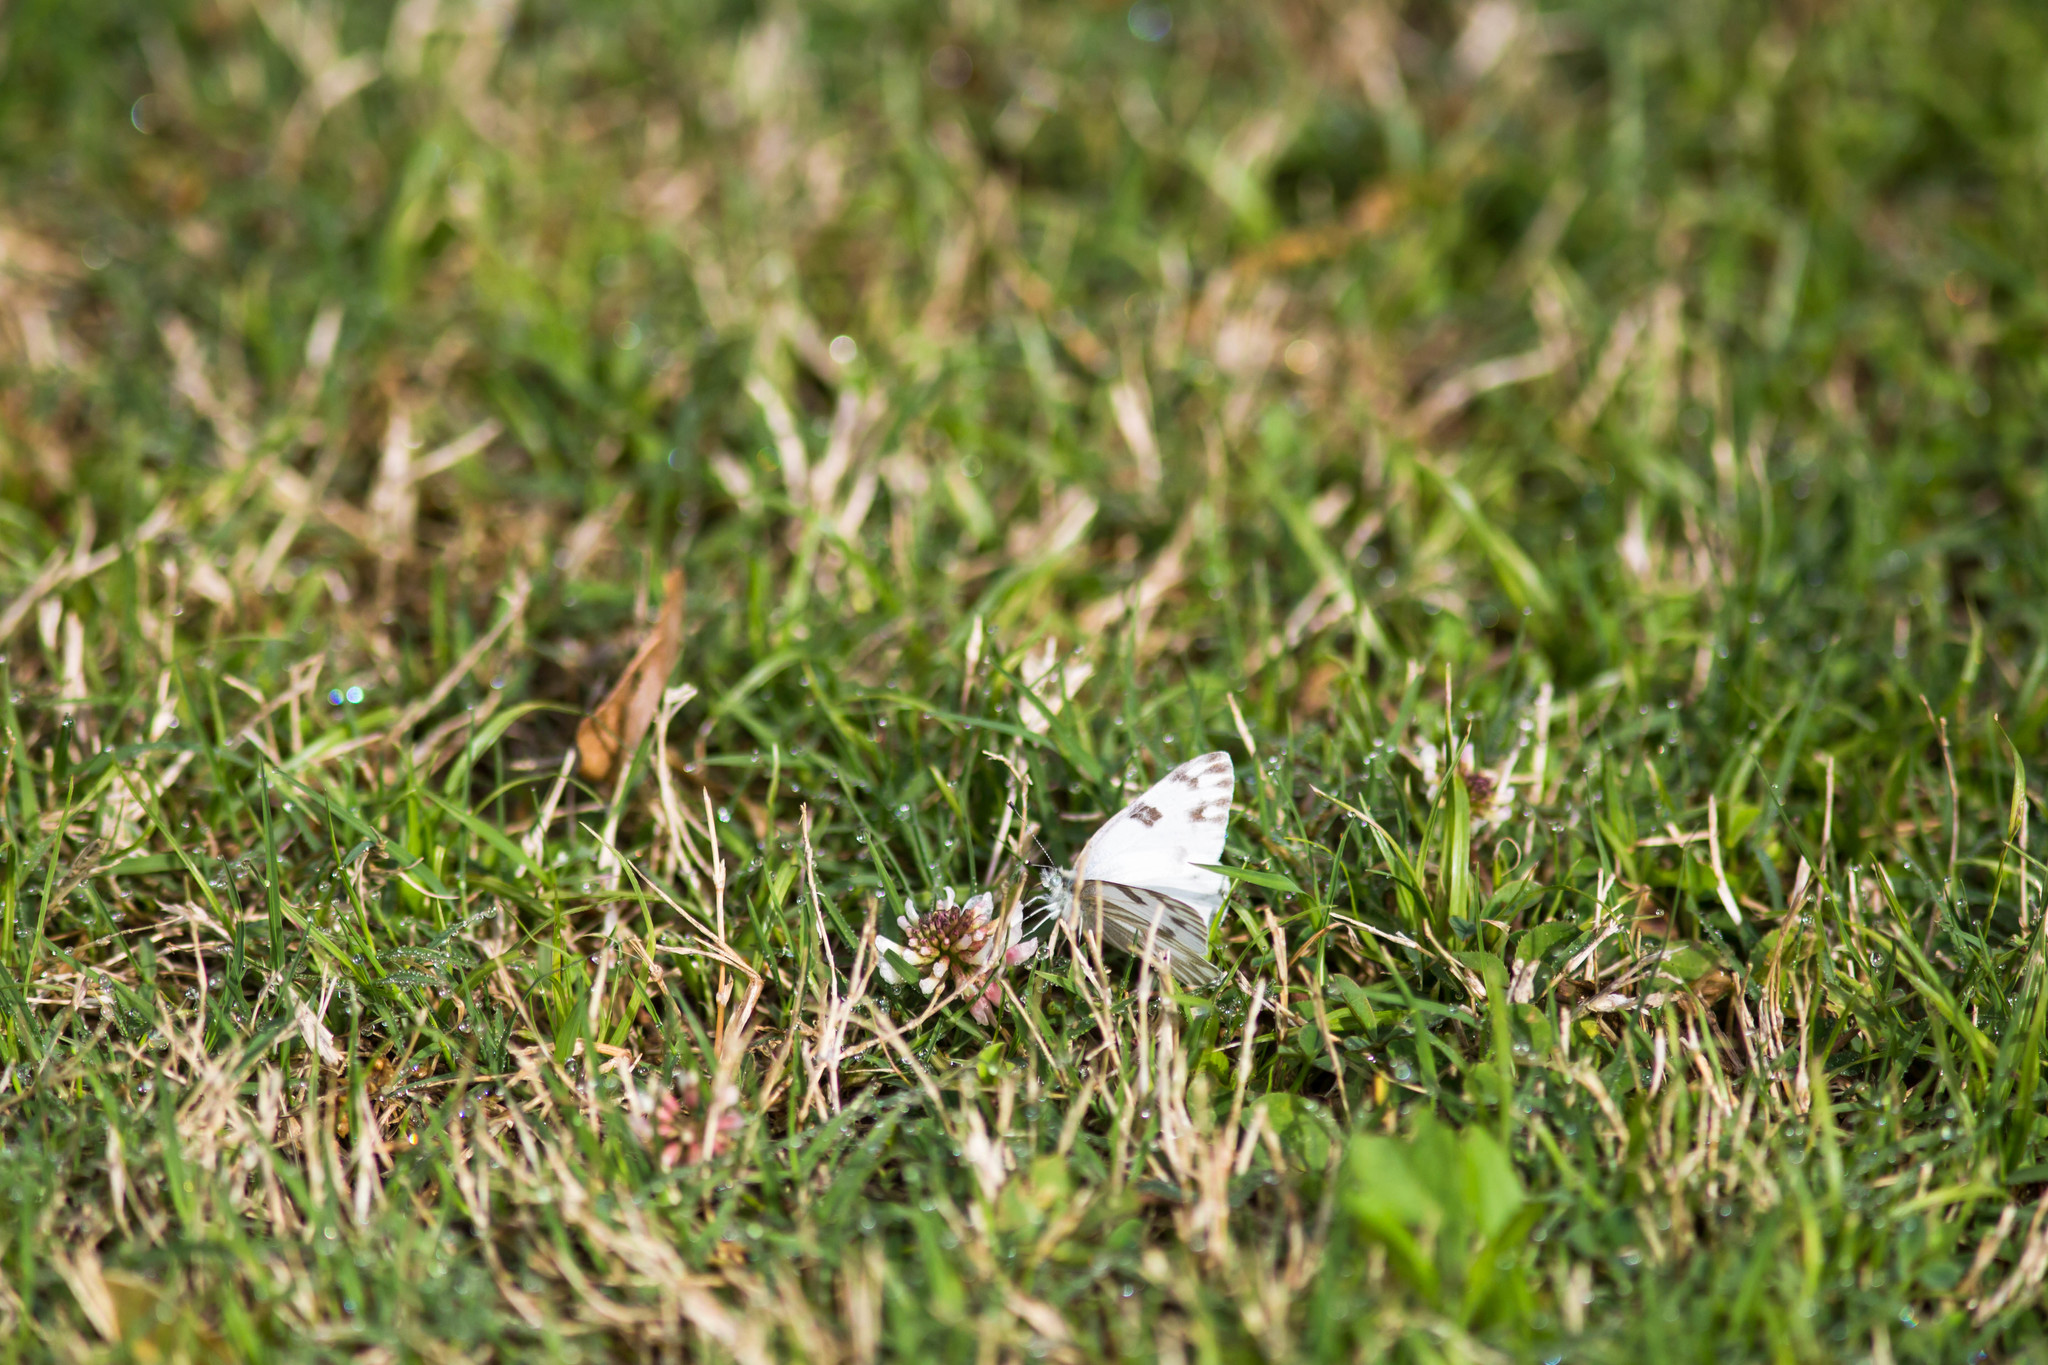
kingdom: Animalia
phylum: Arthropoda
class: Insecta
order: Lepidoptera
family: Pieridae
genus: Pontia
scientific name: Pontia protodice
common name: Checkered white
